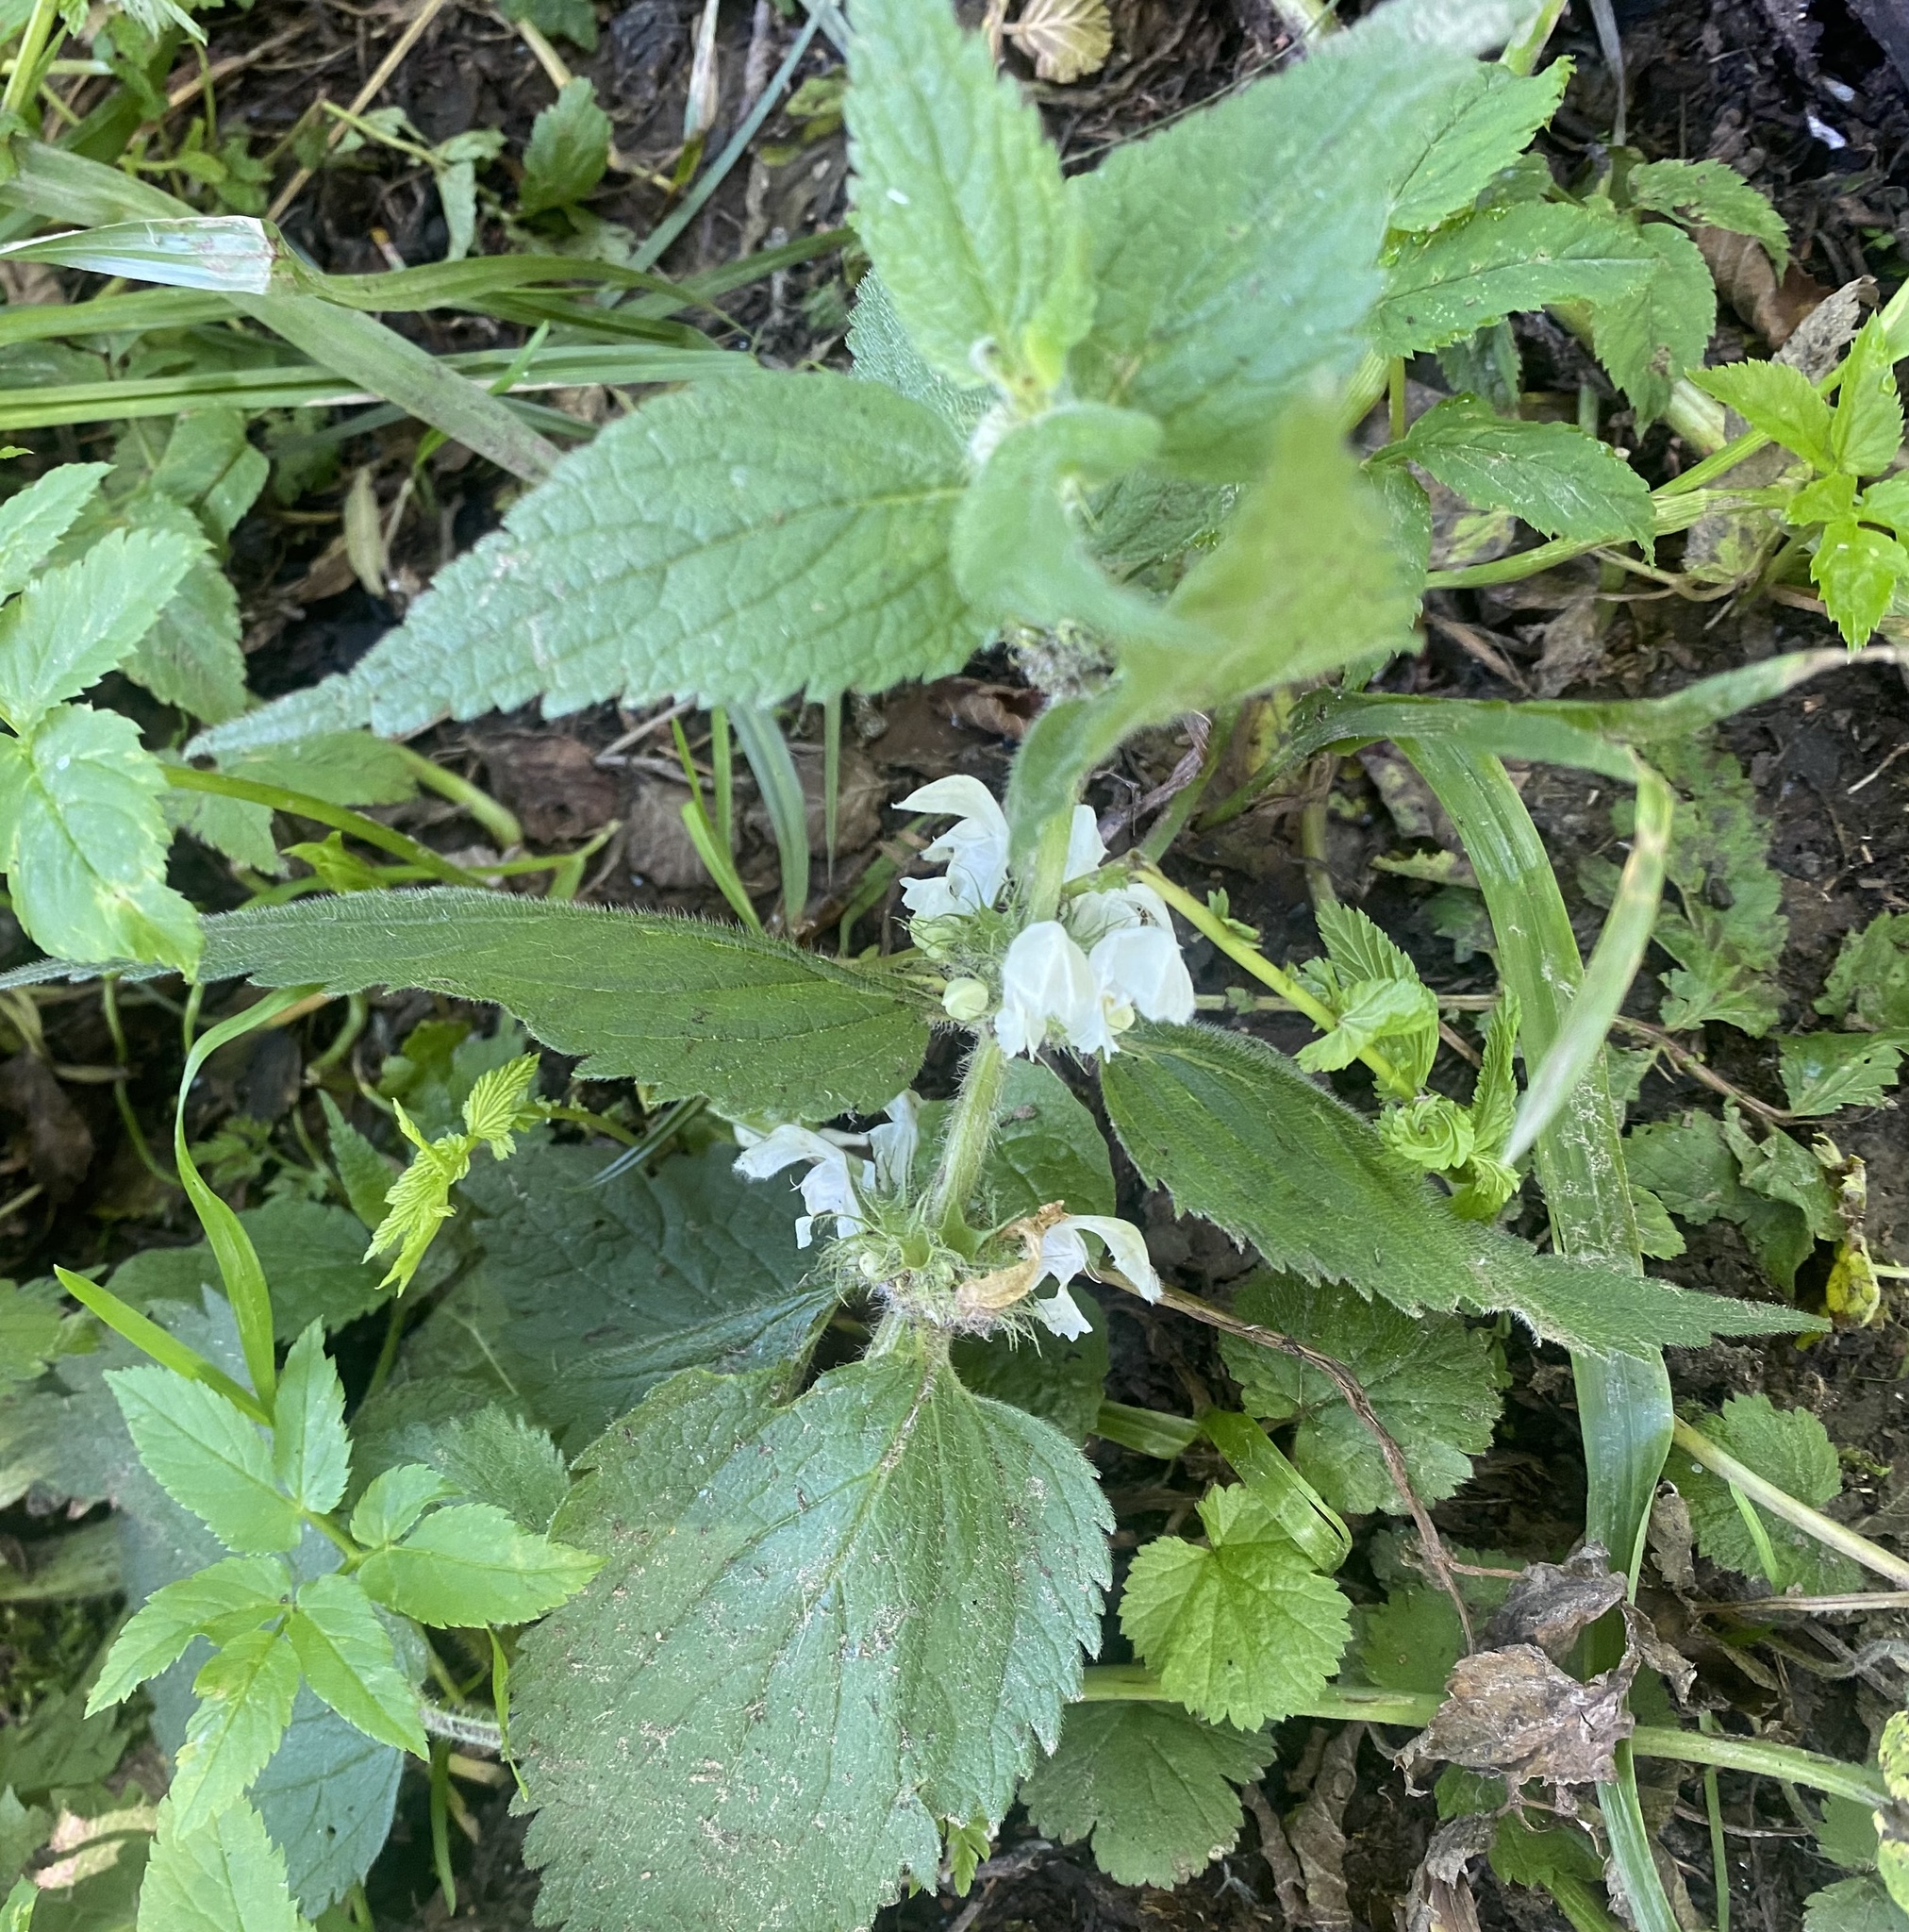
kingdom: Plantae
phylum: Tracheophyta
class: Magnoliopsida
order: Lamiales
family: Lamiaceae
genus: Lamium
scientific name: Lamium album
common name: White dead-nettle
